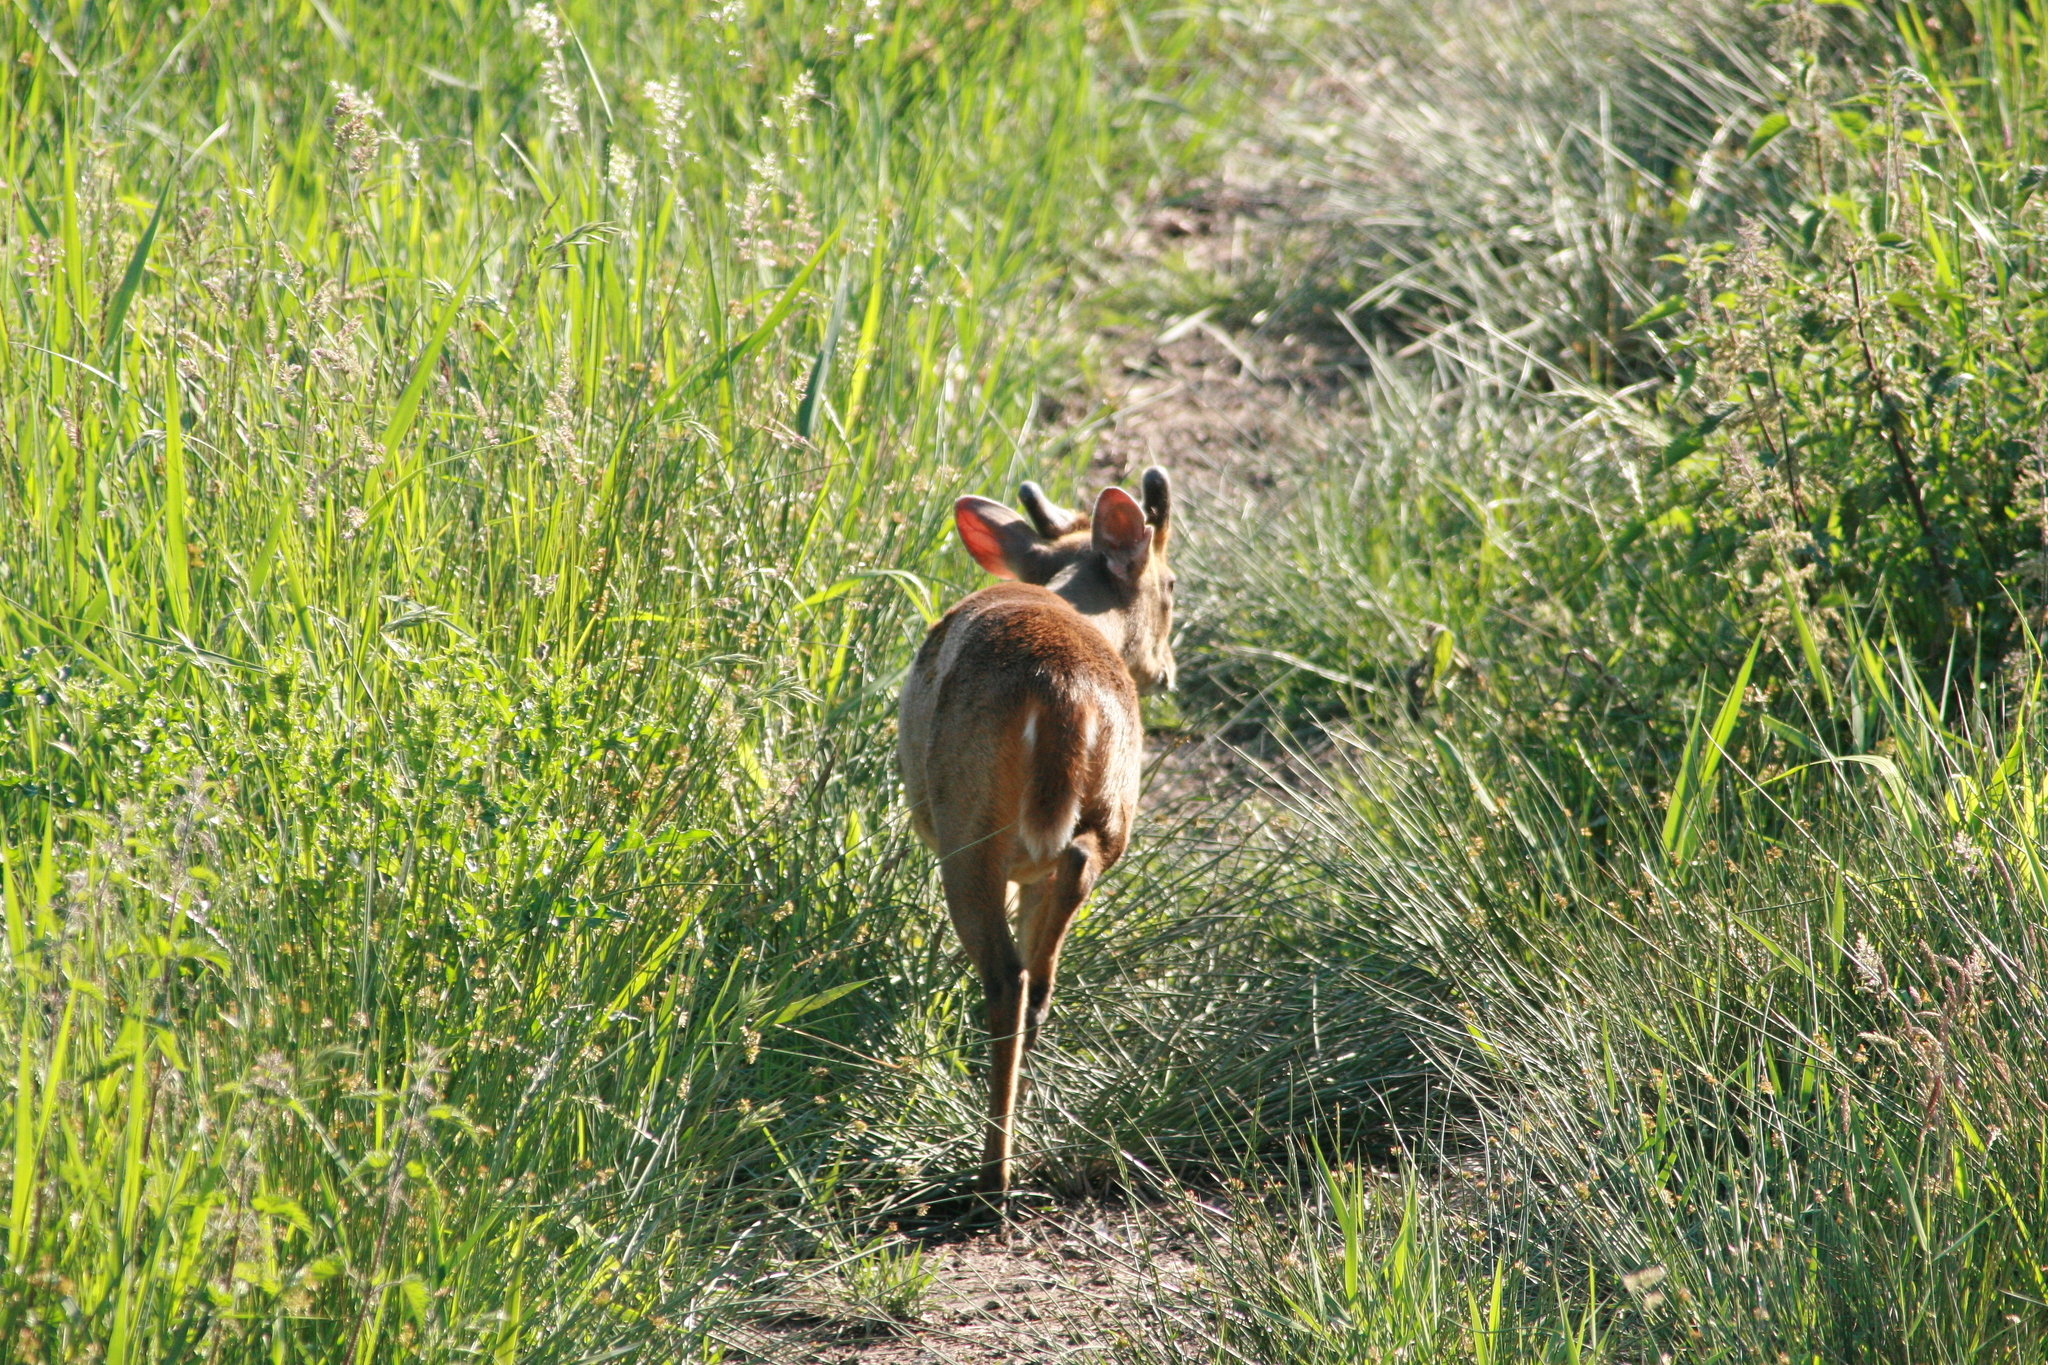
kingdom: Animalia
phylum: Chordata
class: Mammalia
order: Artiodactyla
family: Cervidae
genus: Muntiacus
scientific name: Muntiacus reevesi
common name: Reeves' muntjac
